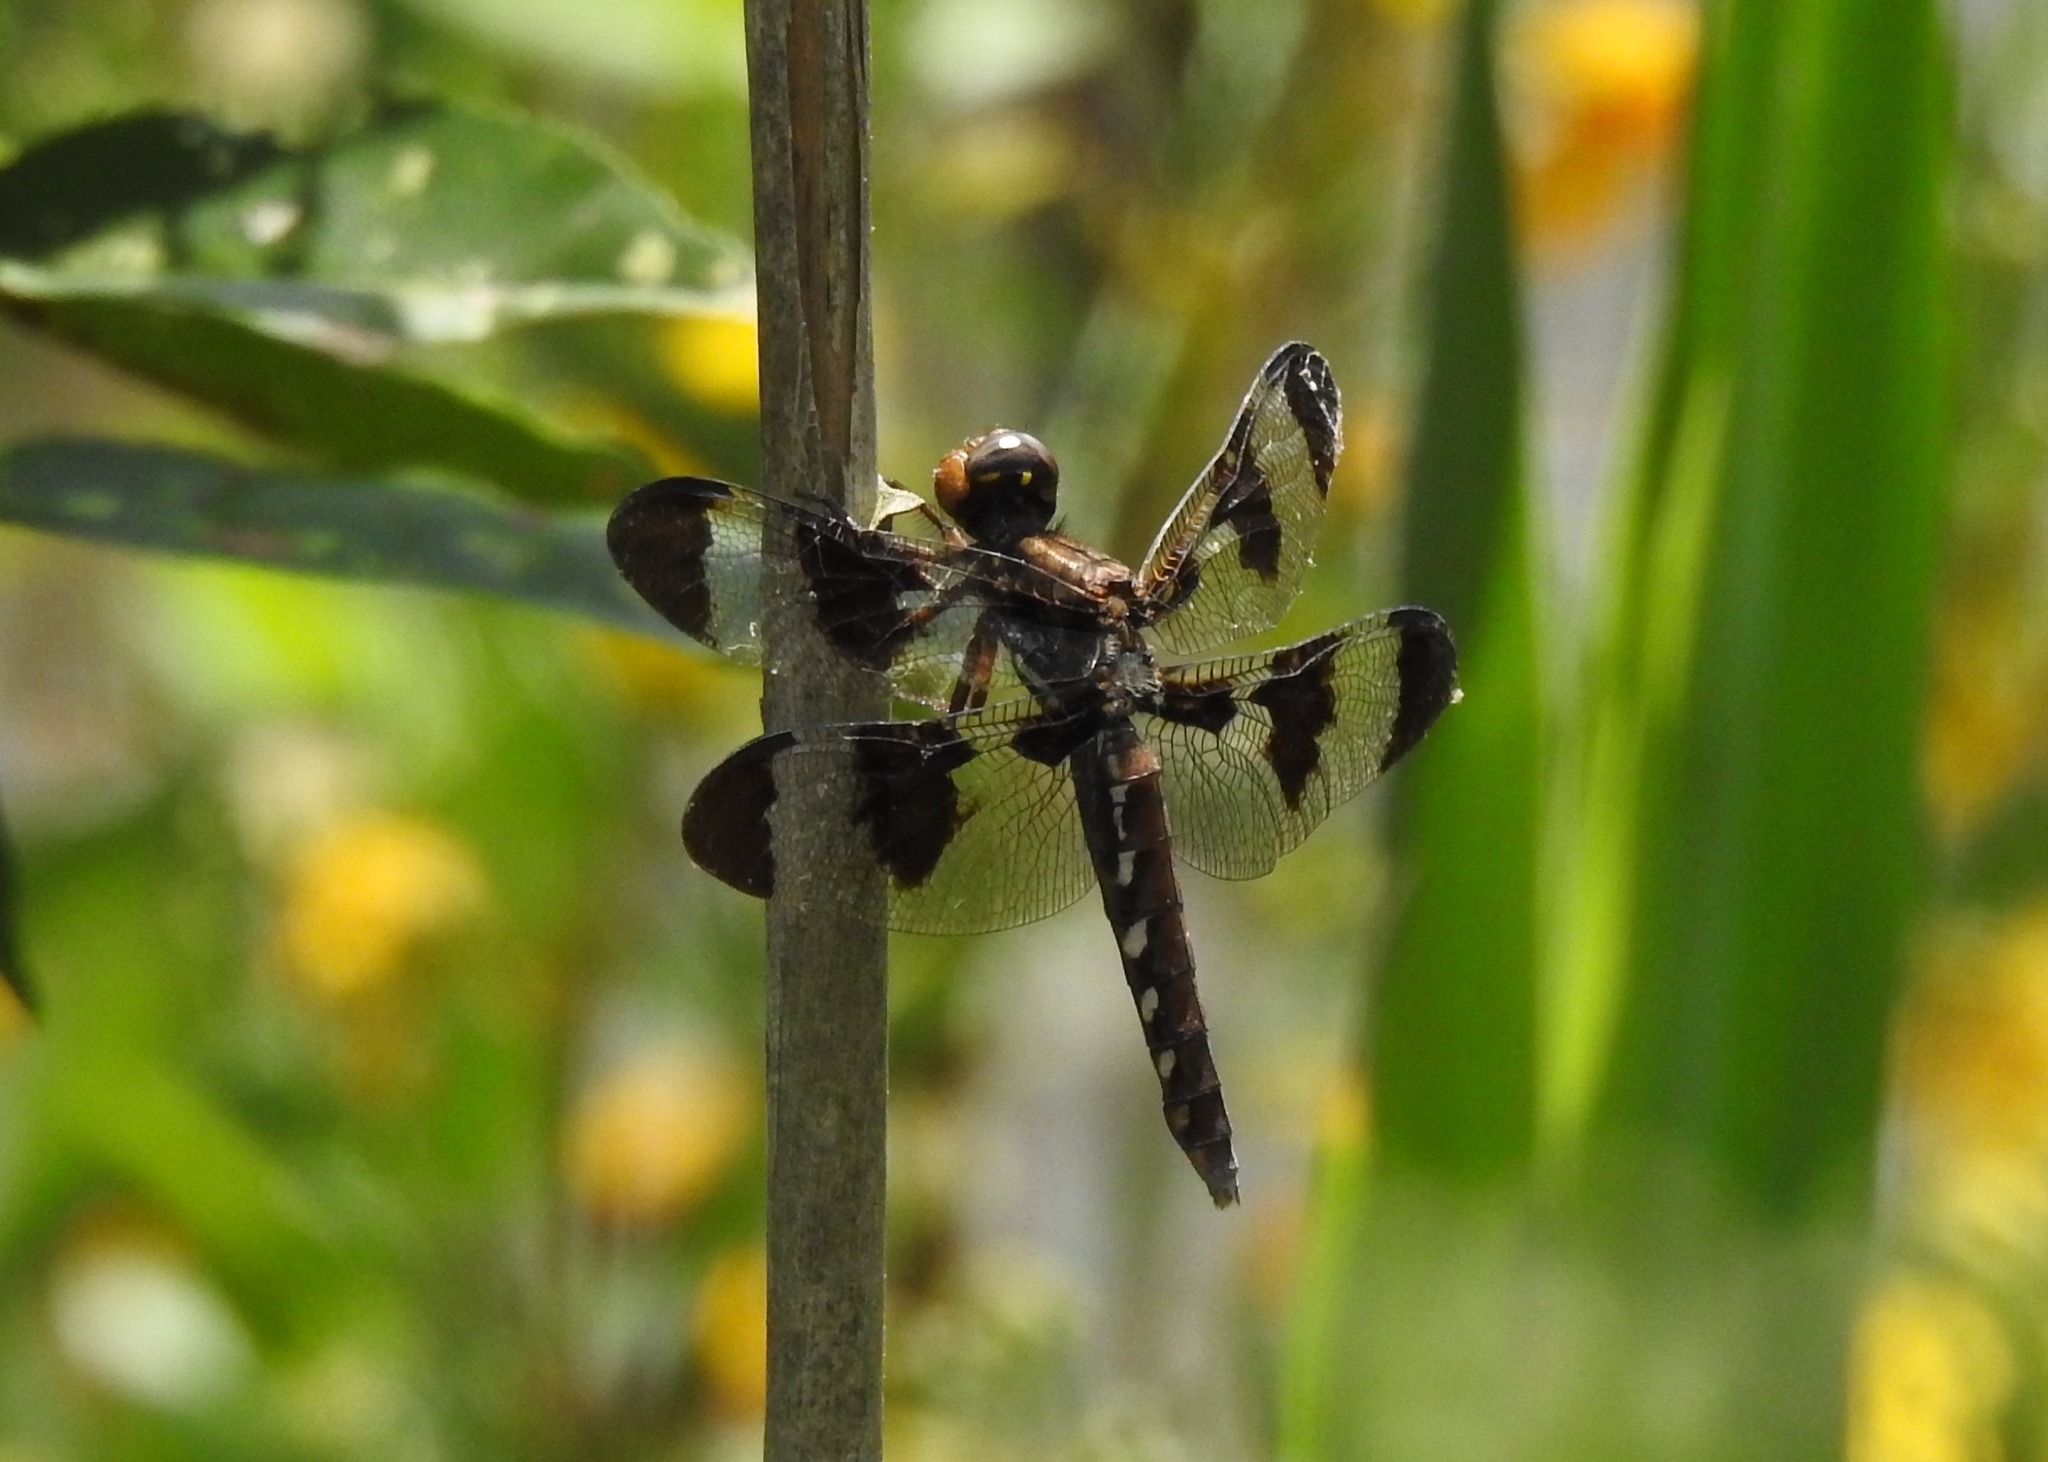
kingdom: Animalia
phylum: Arthropoda
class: Insecta
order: Odonata
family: Libellulidae
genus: Plathemis
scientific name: Plathemis lydia
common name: Common whitetail
